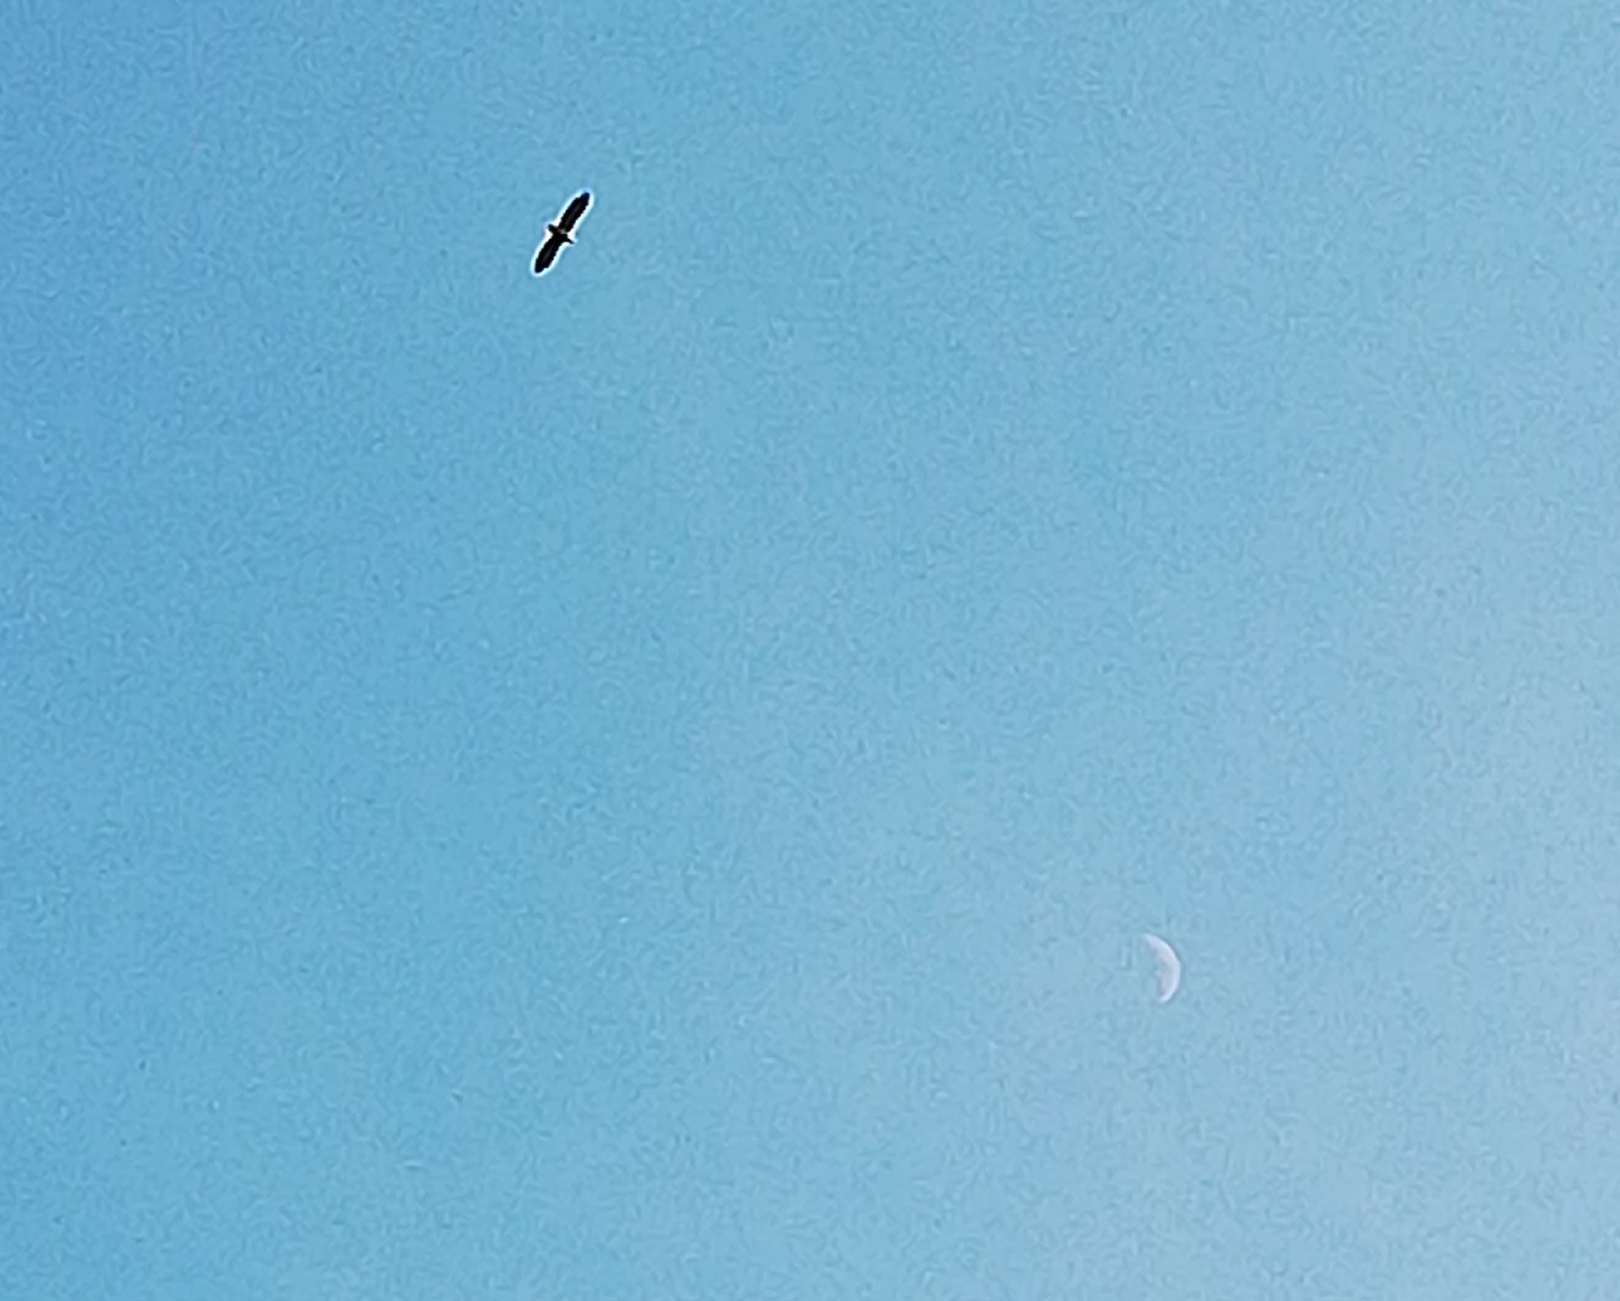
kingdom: Animalia
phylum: Chordata
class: Aves
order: Accipitriformes
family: Accipitridae
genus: Haliaeetus
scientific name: Haliaeetus albicilla
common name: White-tailed eagle
